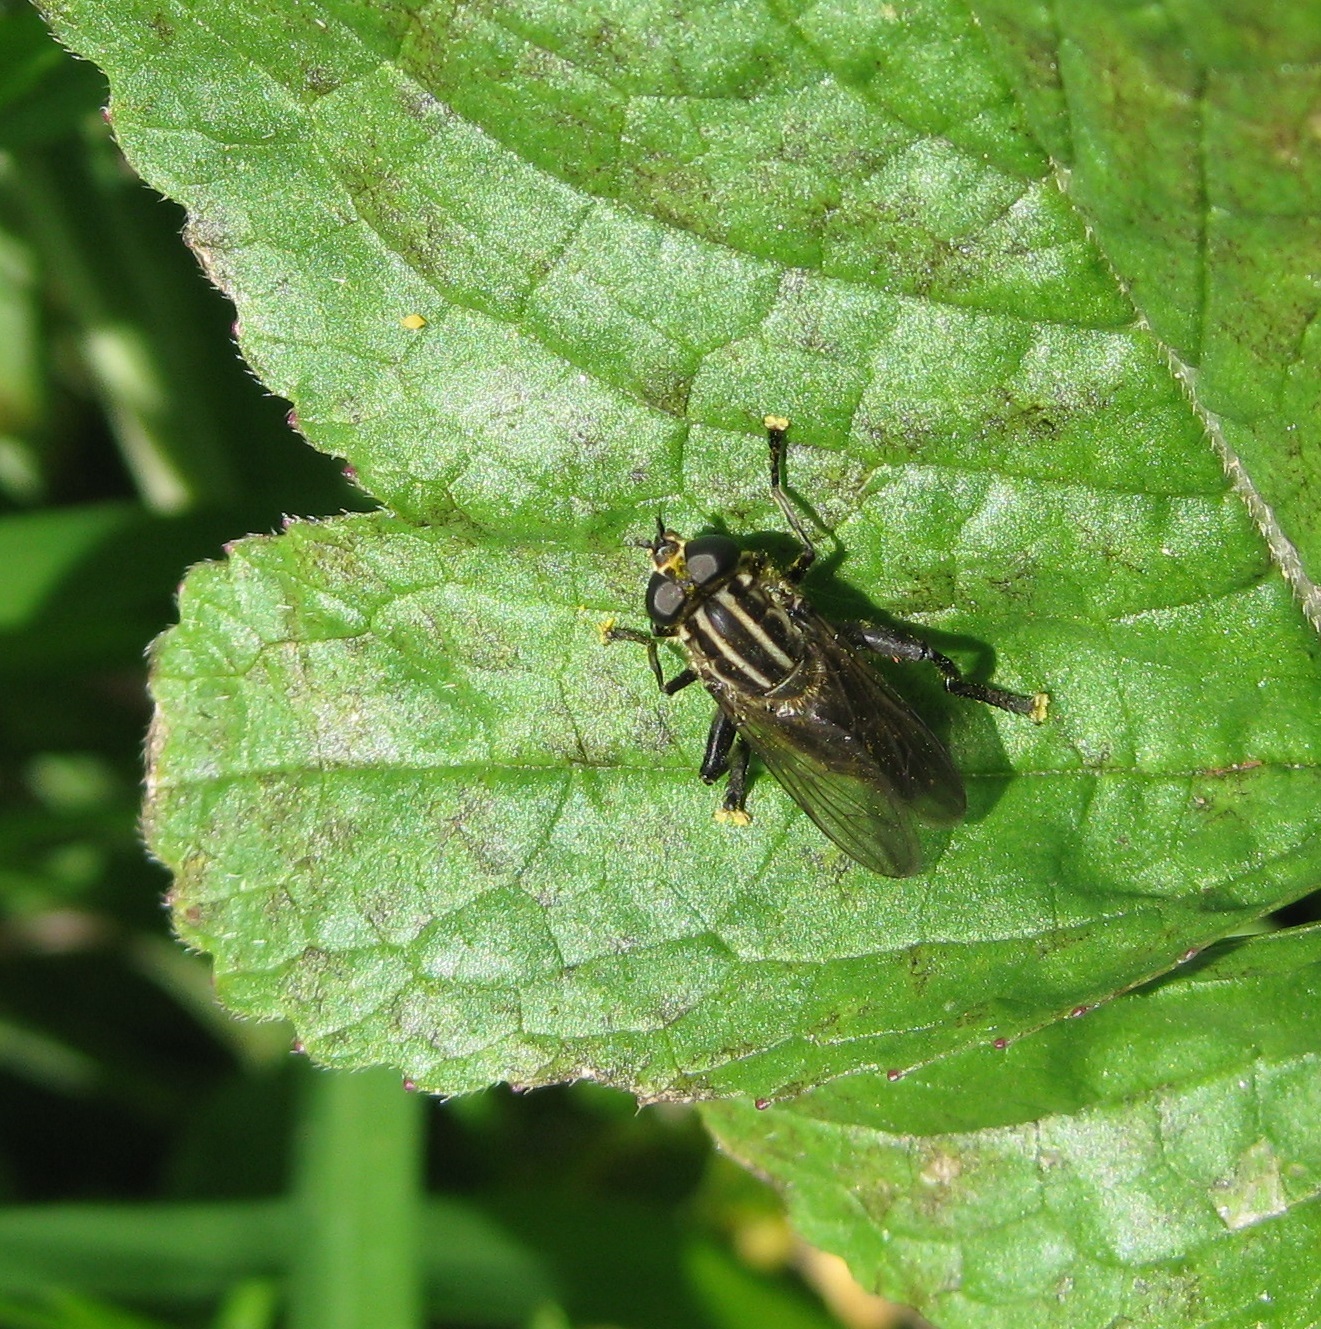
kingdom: Animalia
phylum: Arthropoda
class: Insecta
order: Diptera
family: Syrphidae
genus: Orthoprosopa
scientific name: Orthoprosopa bilineata
